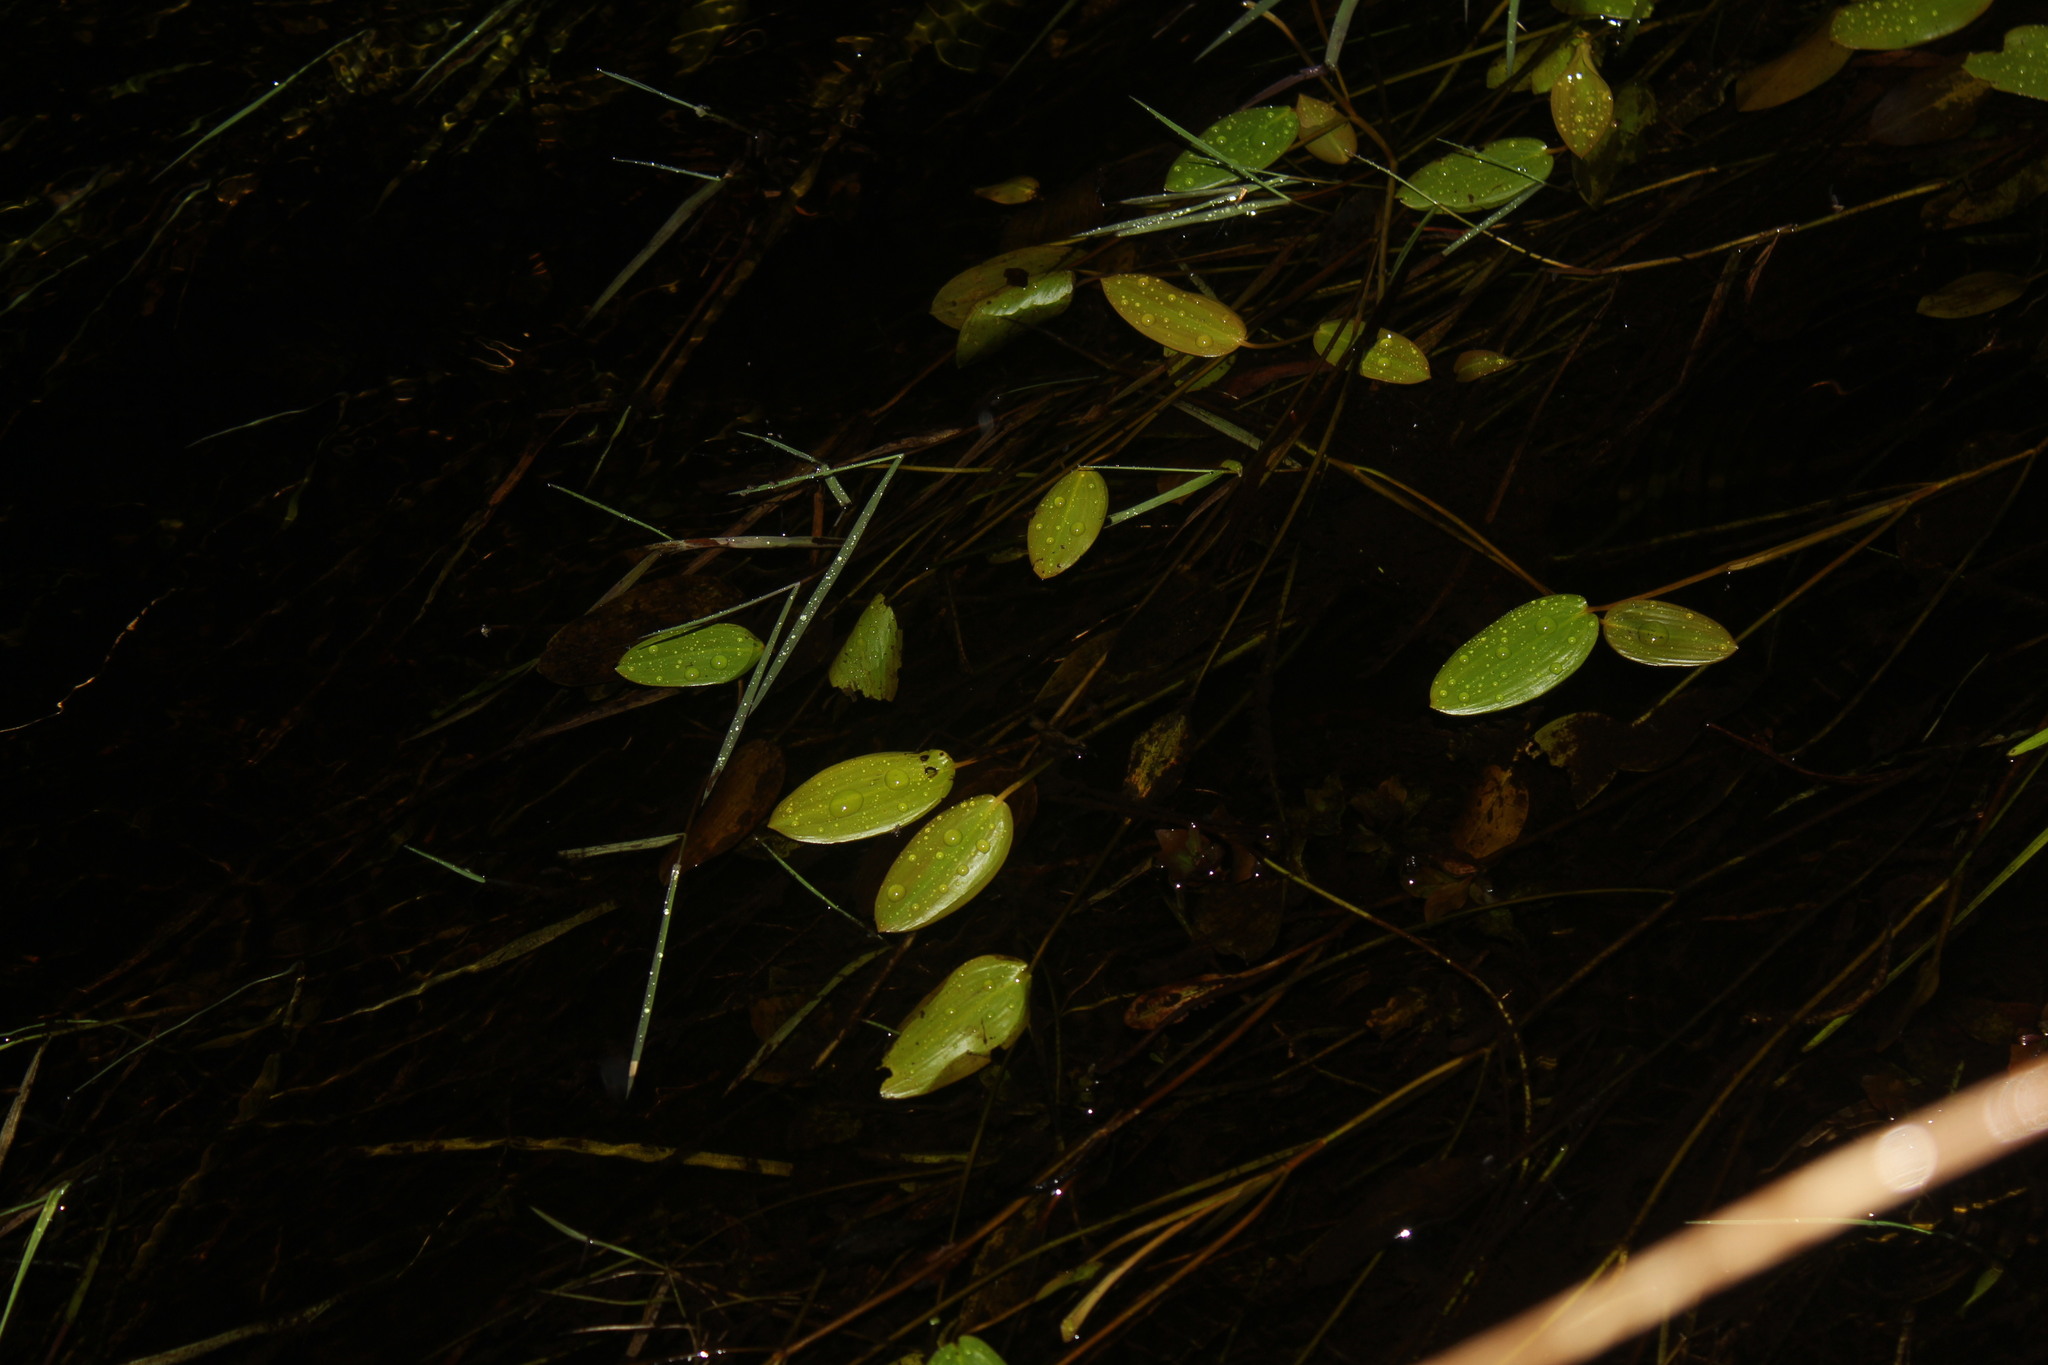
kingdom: Plantae
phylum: Tracheophyta
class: Liliopsida
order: Alismatales
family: Potamogetonaceae
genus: Potamogeton
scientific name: Potamogeton natans
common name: Broad-leaved pondweed
